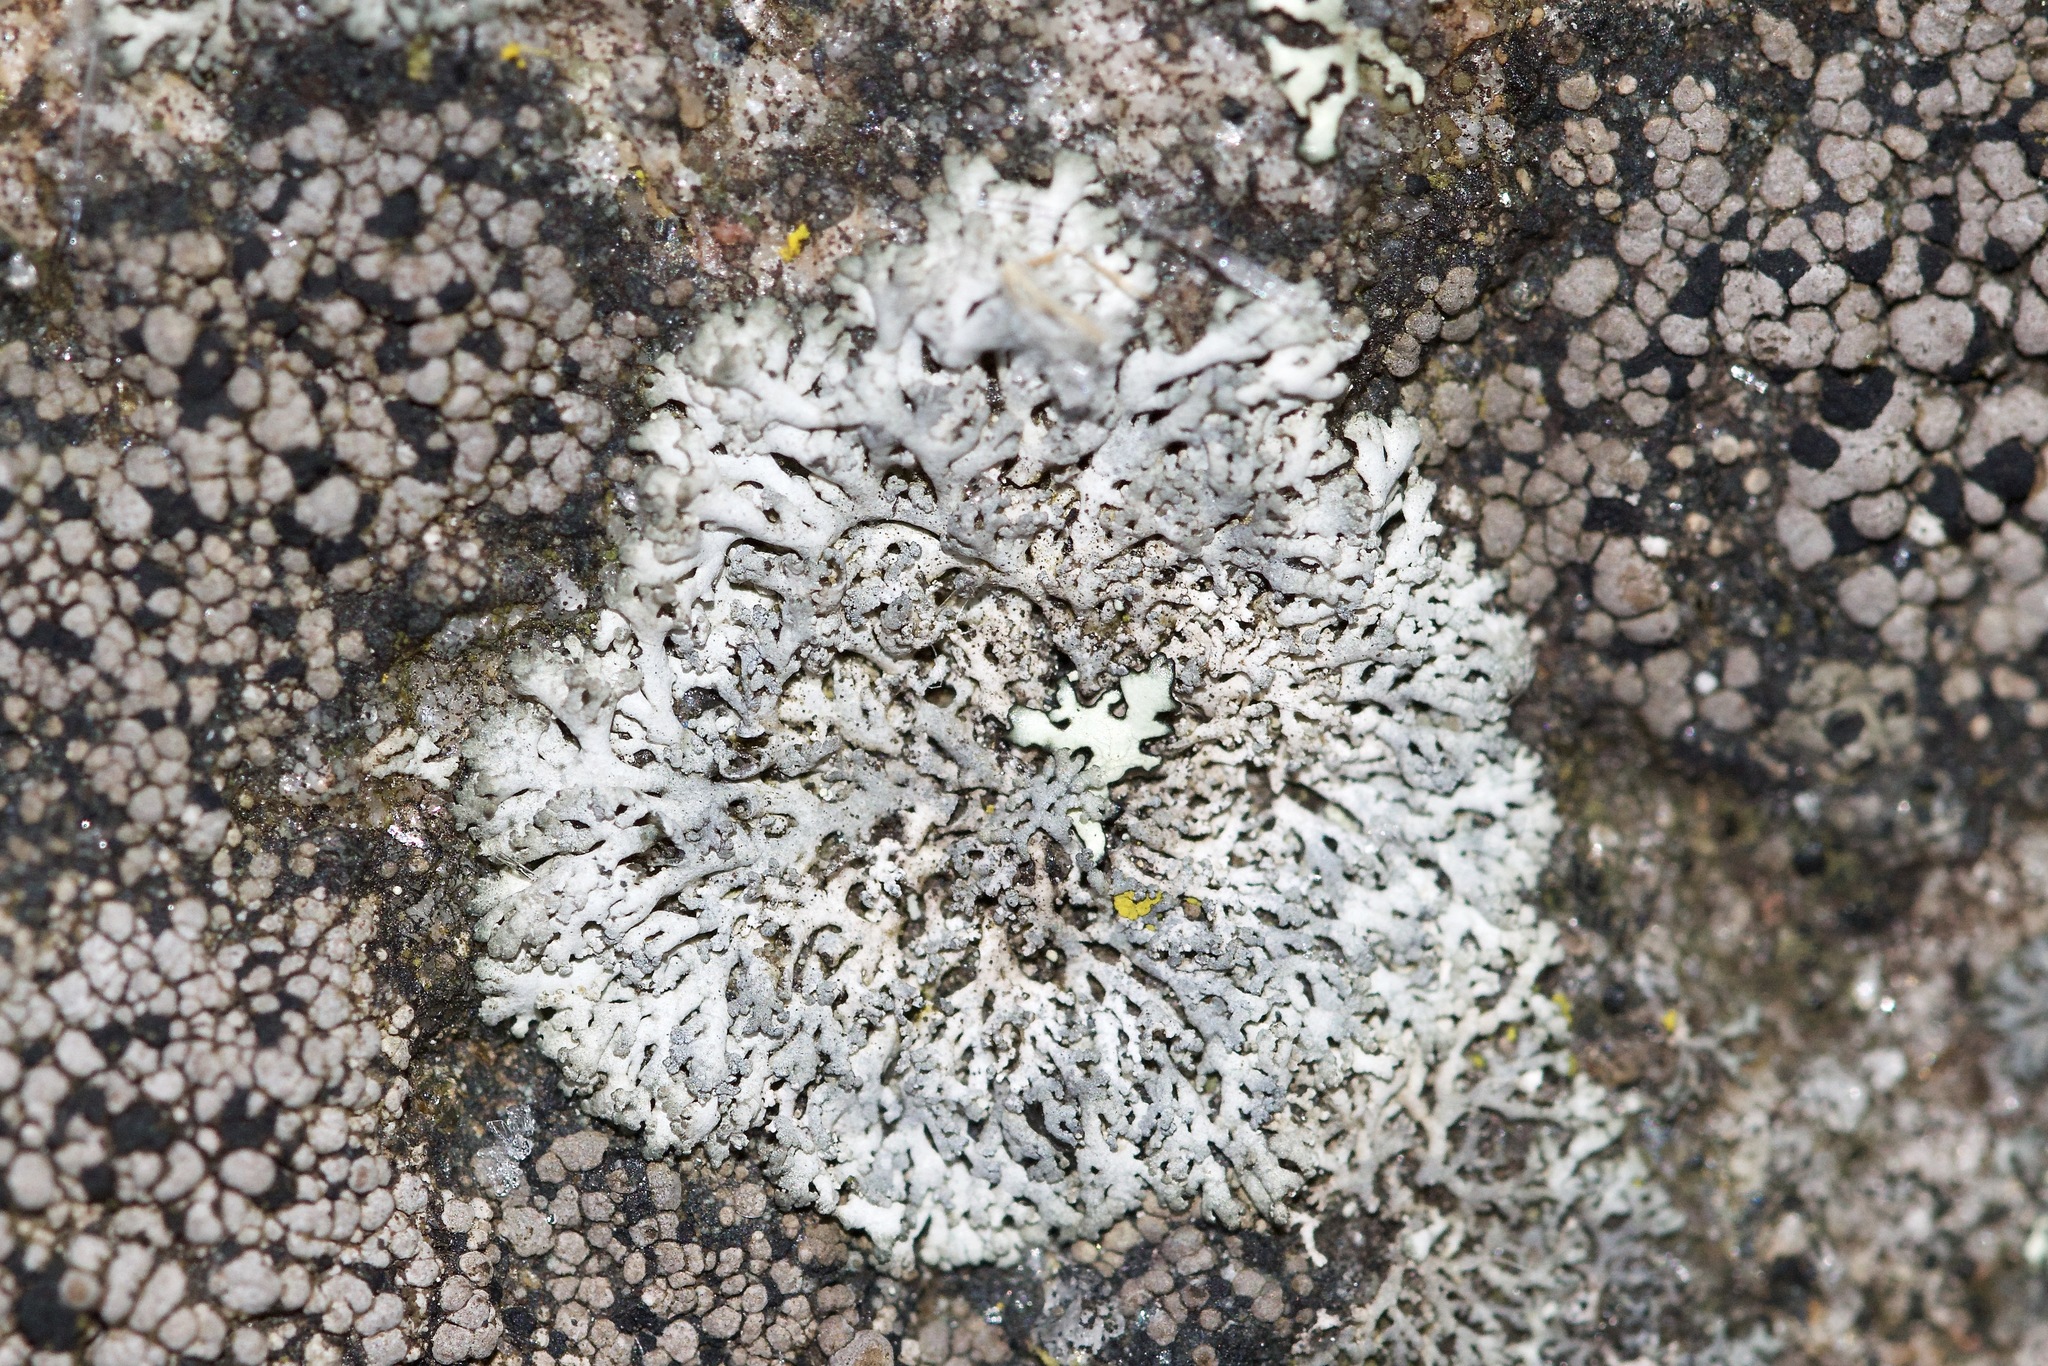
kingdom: Fungi
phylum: Ascomycota
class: Lecanoromycetes
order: Caliciales
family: Physciaceae
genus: Physcia
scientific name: Physcia thomsoniana
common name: Thomson's rosette lichen
